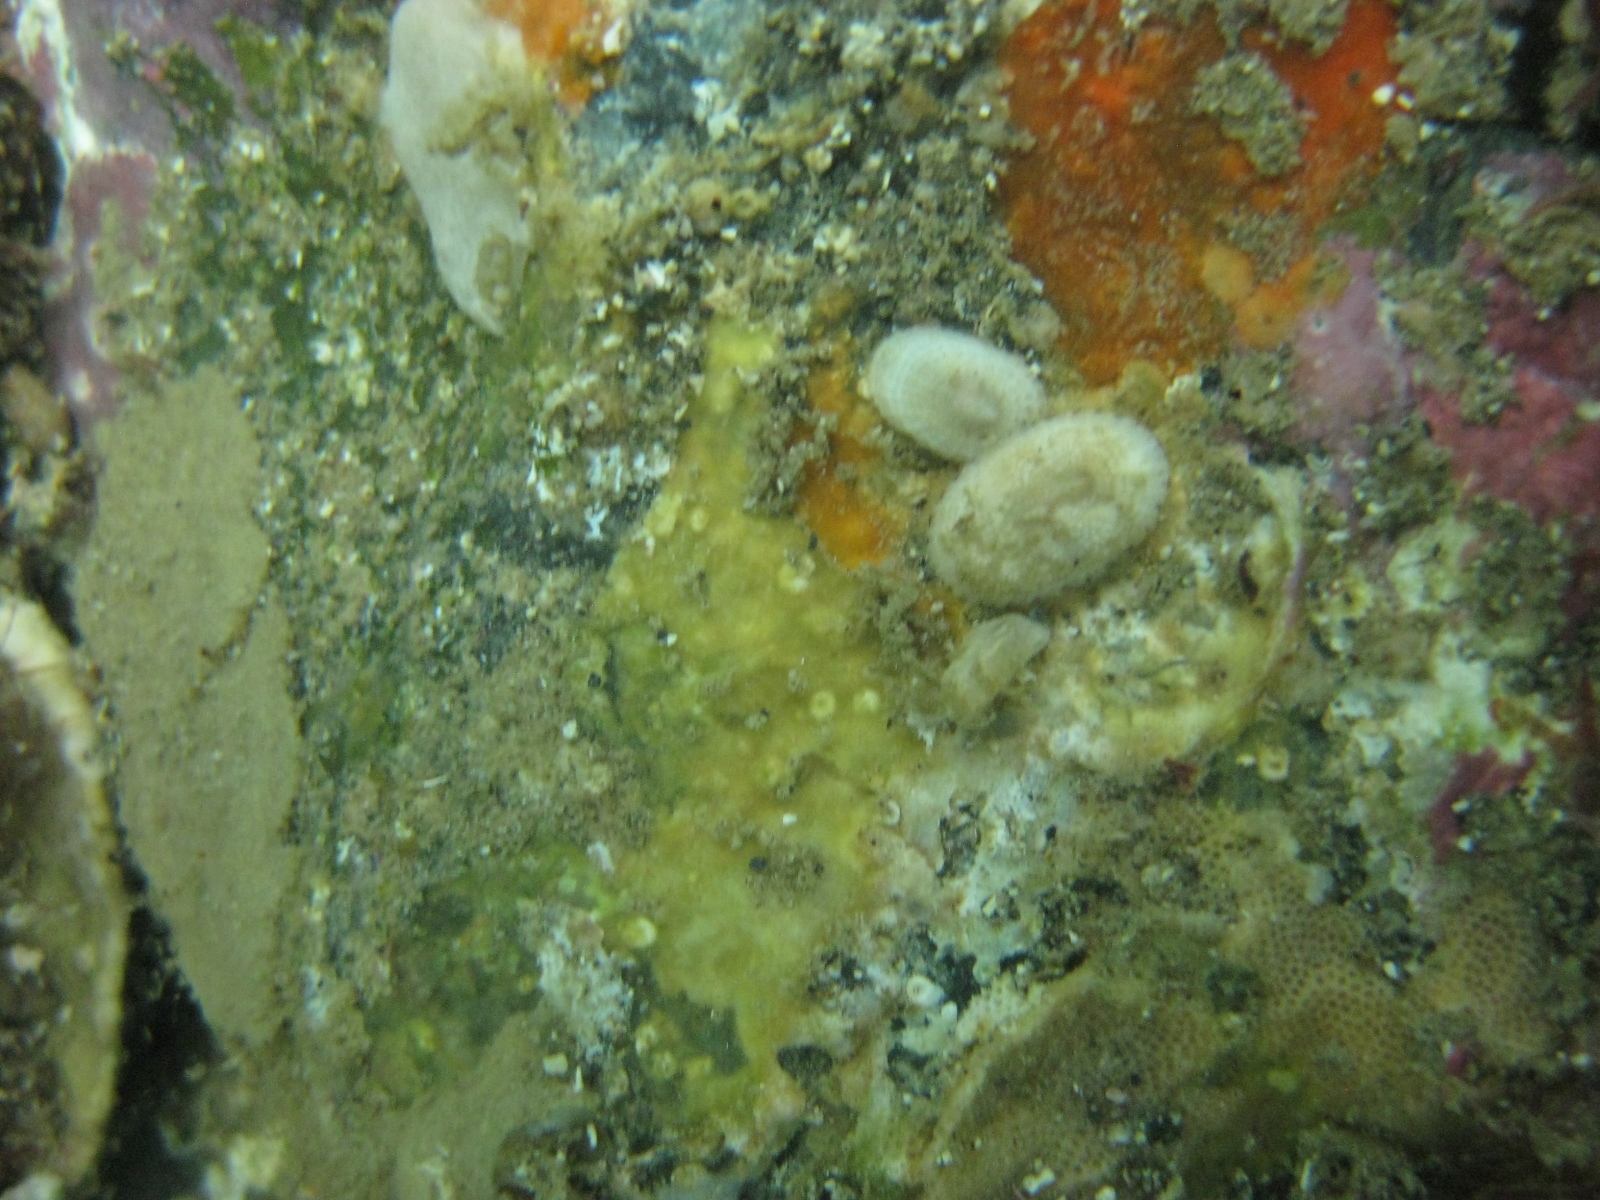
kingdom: Animalia
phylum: Mollusca
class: Gastropoda
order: Lepetellida
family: Fissurellidae
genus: Tugali
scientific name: Tugali suteri
